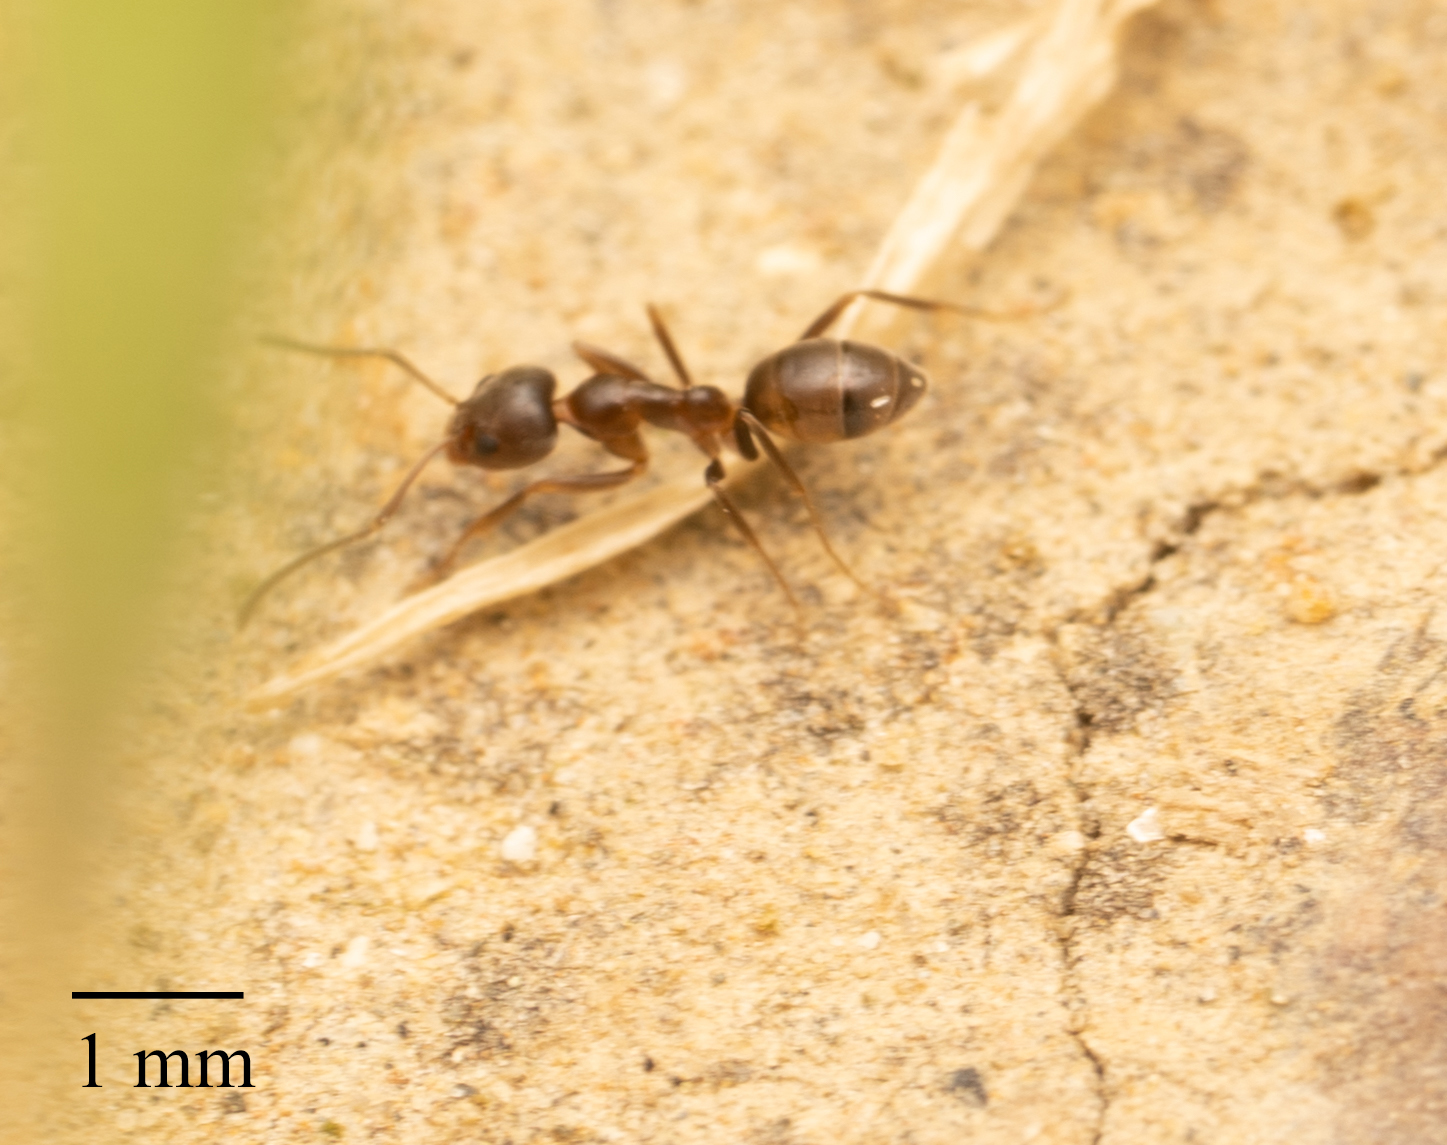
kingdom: Animalia
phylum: Arthropoda
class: Insecta
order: Hymenoptera
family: Formicidae
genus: Linepithema
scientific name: Linepithema humile
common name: Argentine ant
